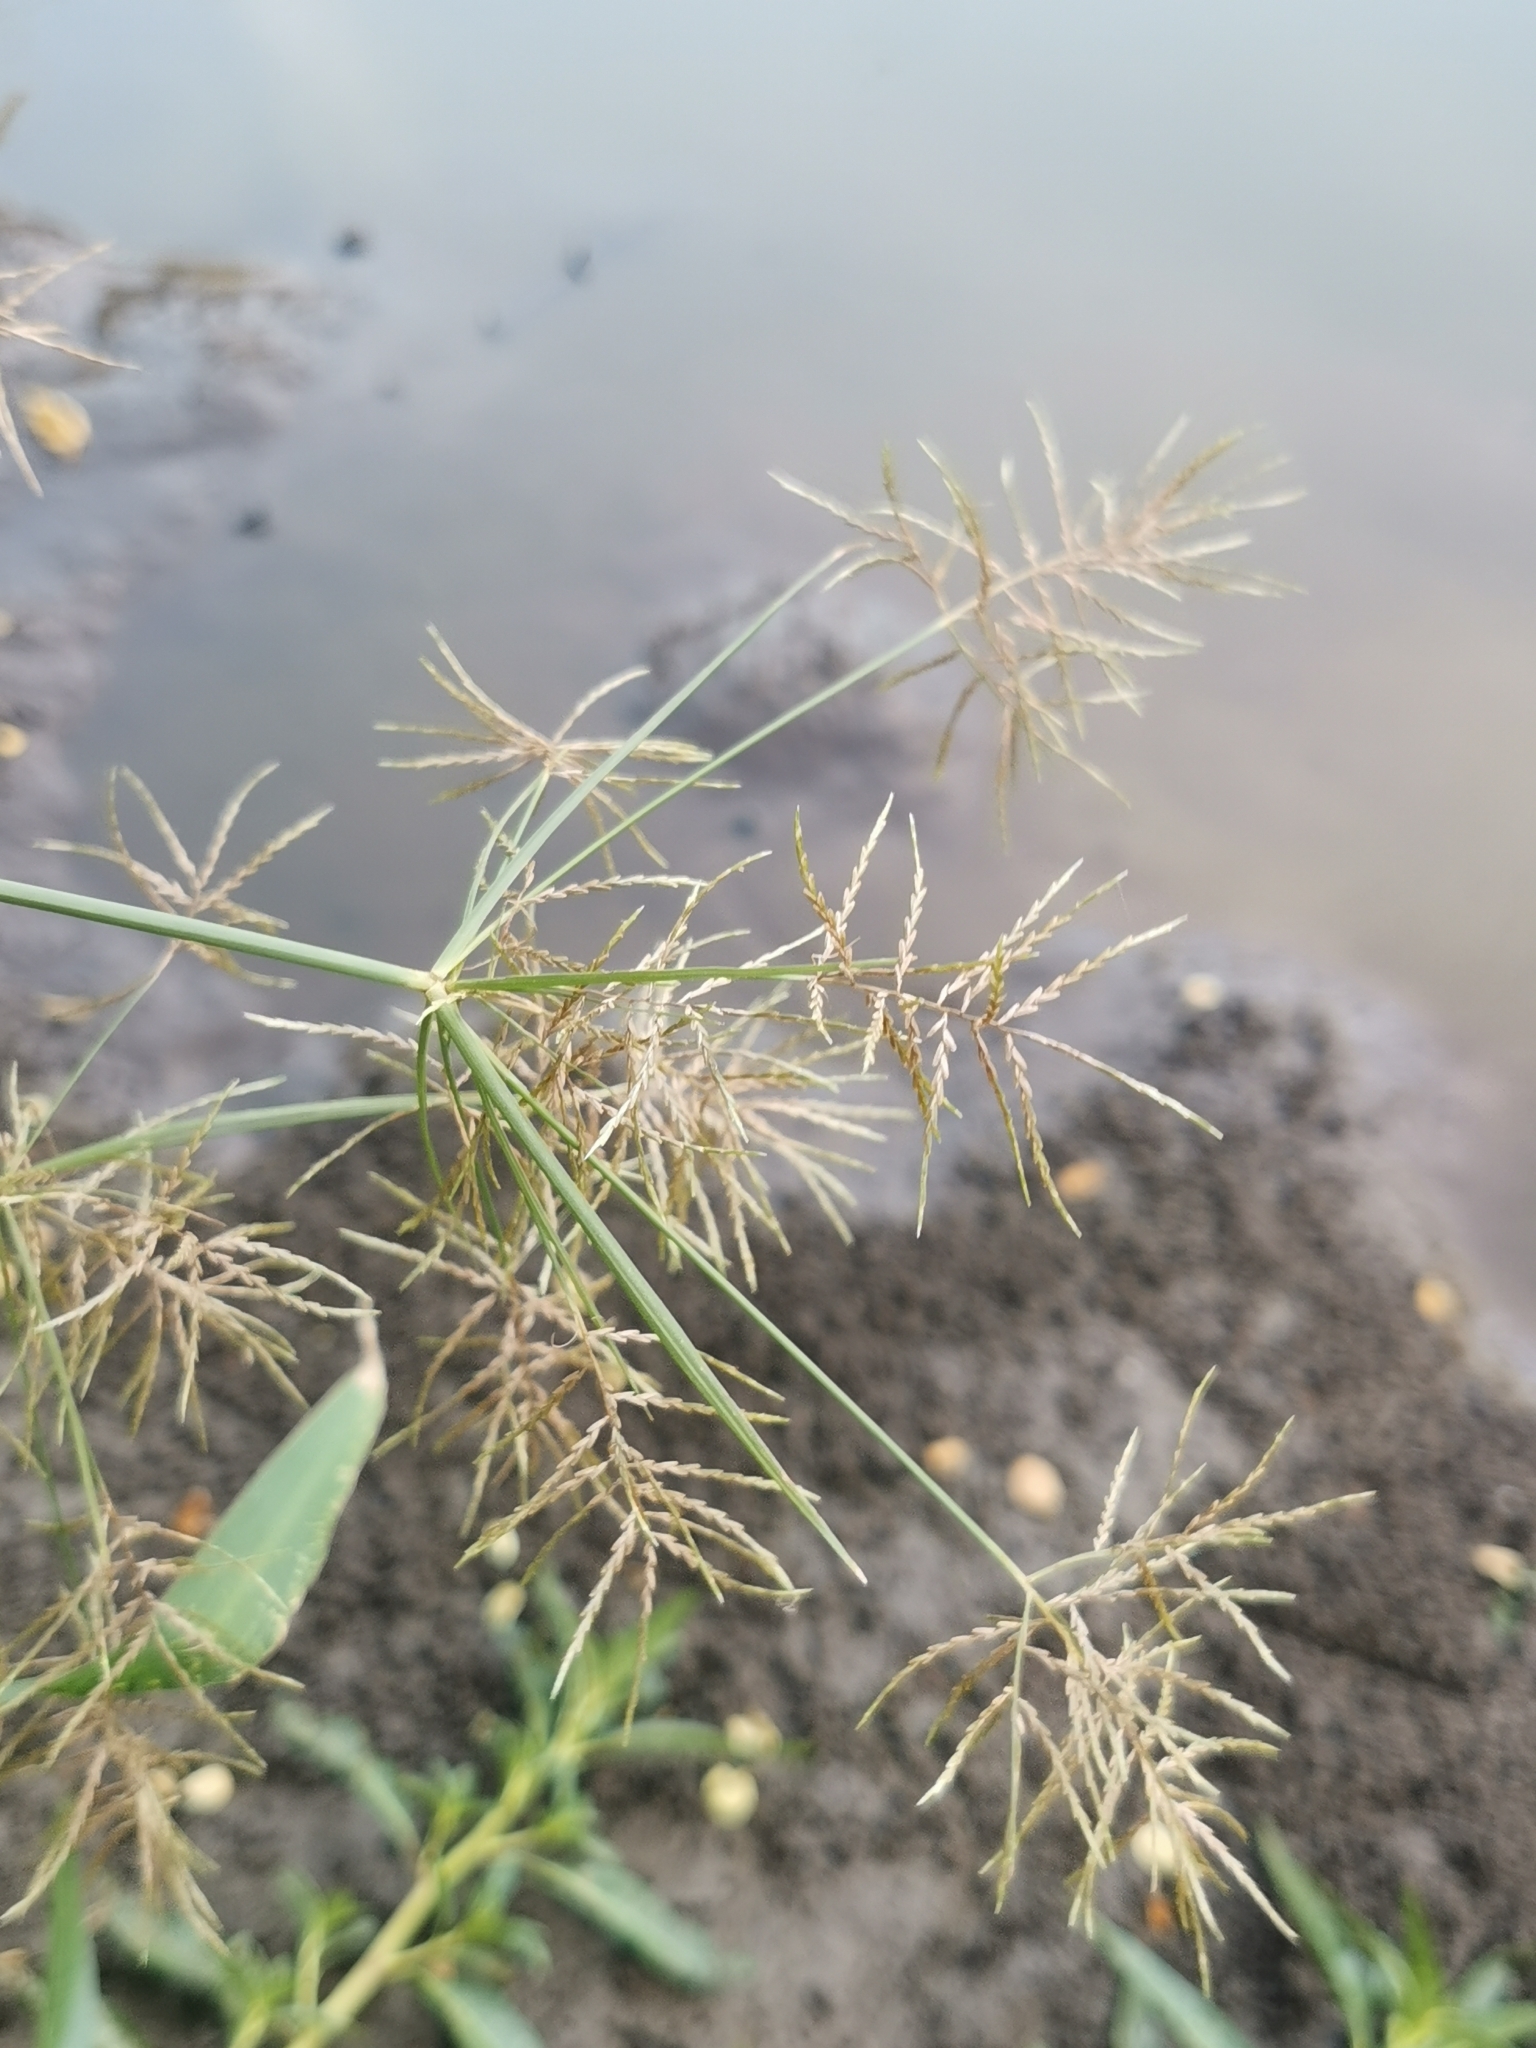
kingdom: Plantae
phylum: Tracheophyta
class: Liliopsida
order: Poales
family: Cyperaceae
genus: Cyperus
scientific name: Cyperus distans
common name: Slender cyperus
